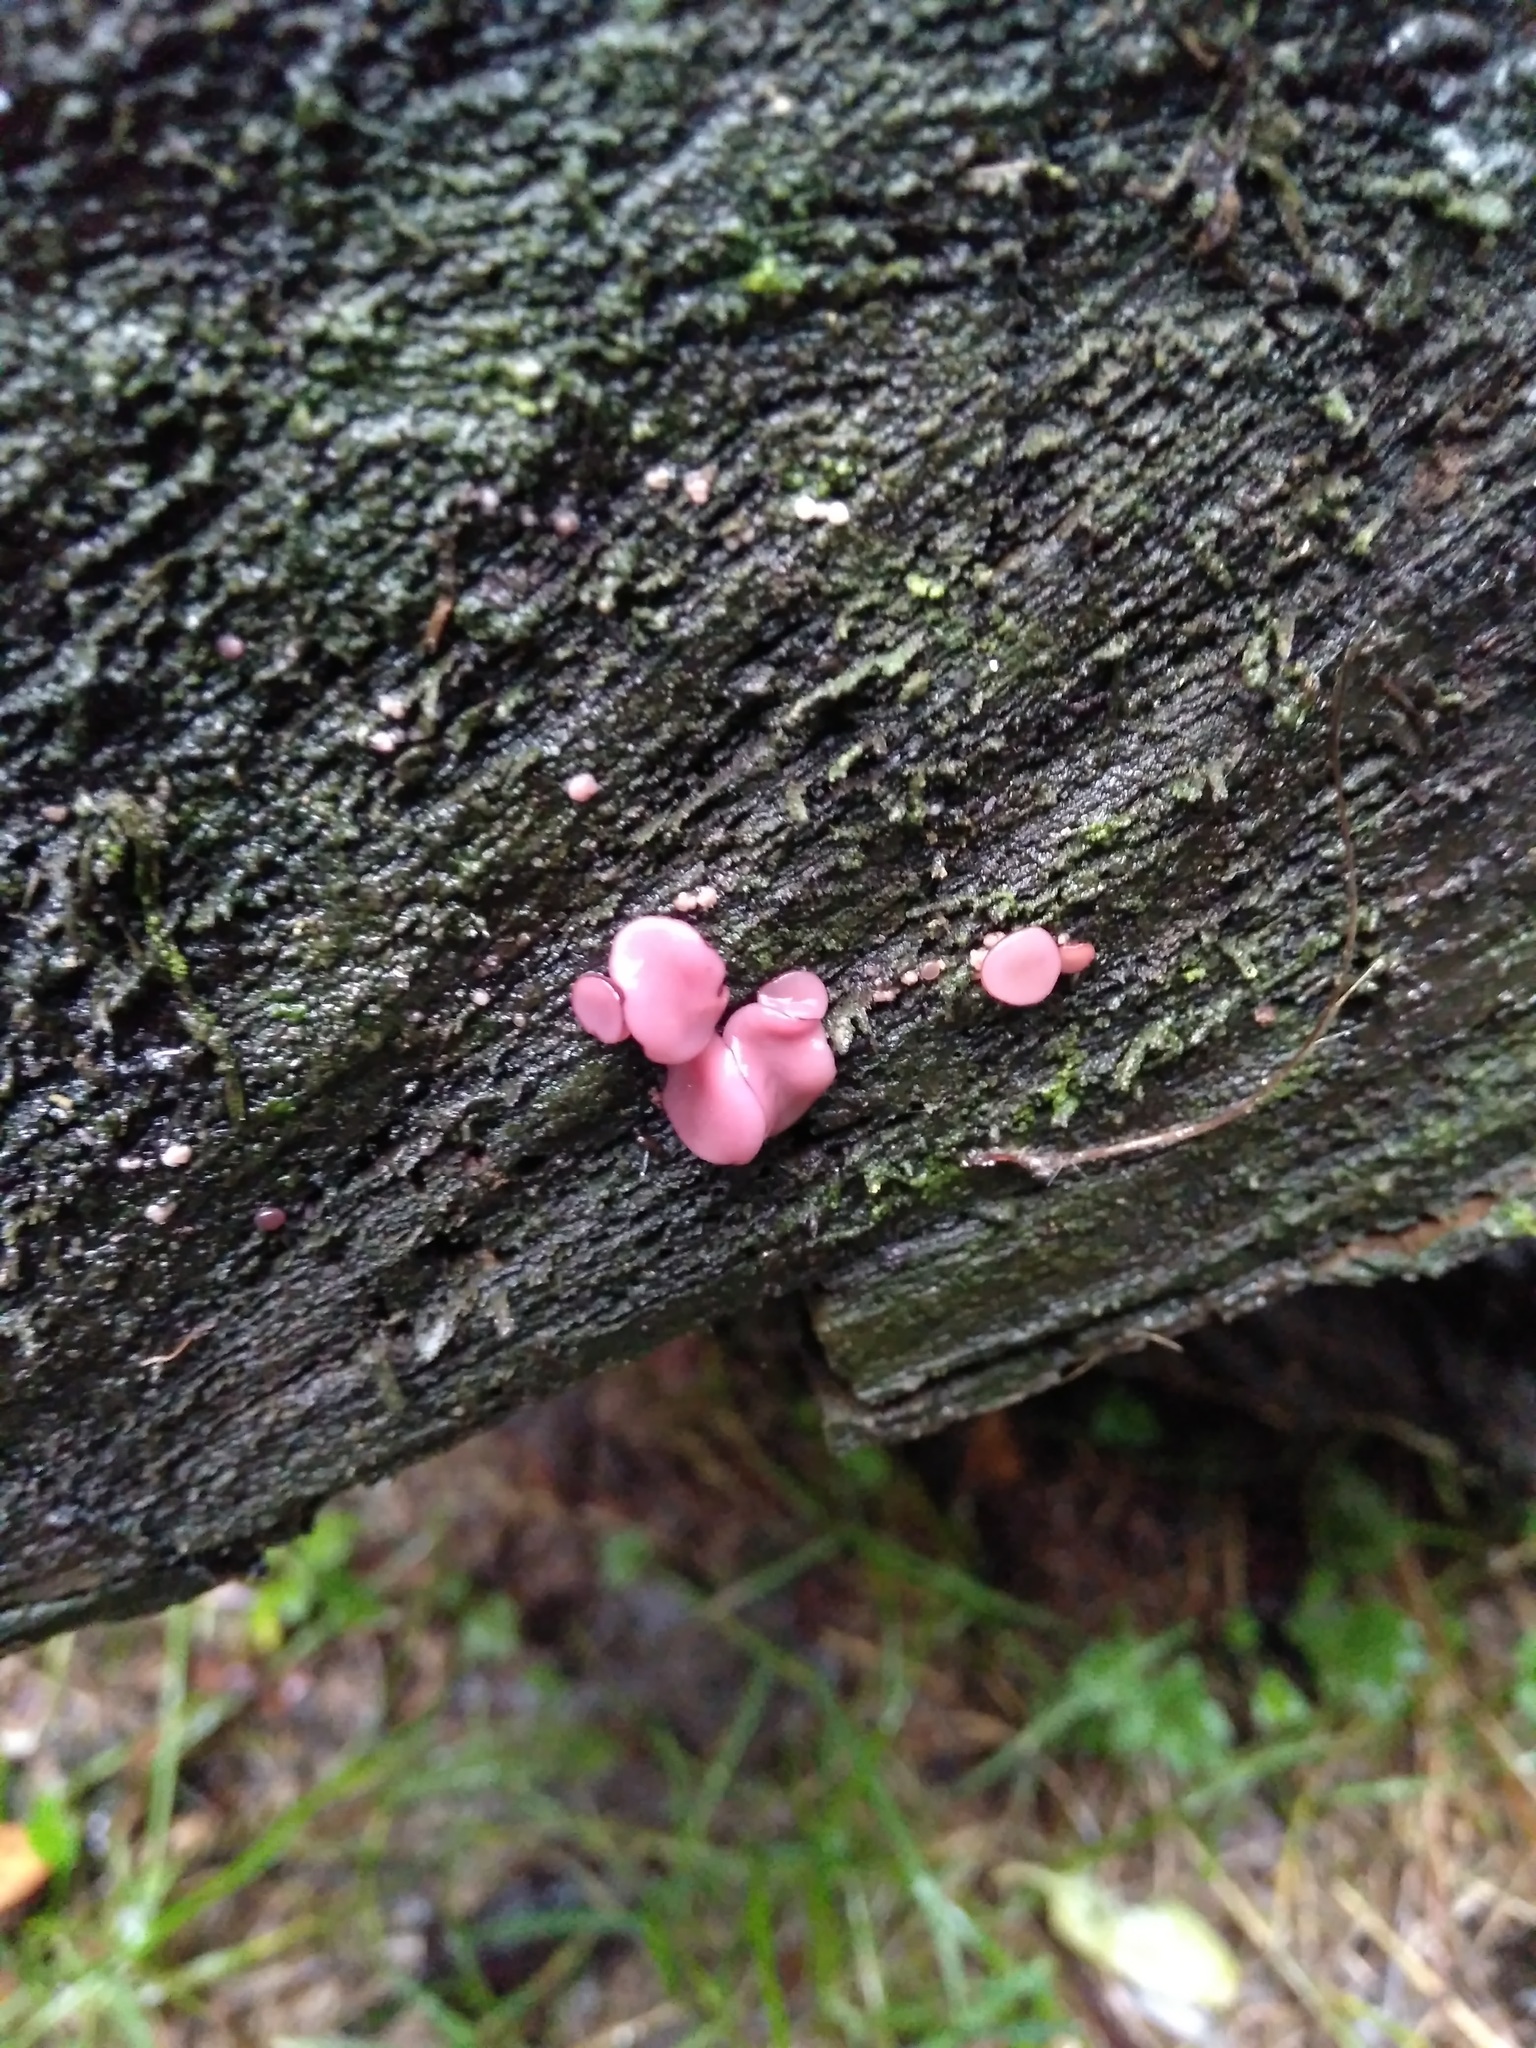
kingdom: Fungi
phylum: Ascomycota
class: Leotiomycetes
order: Helotiales
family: Gelatinodiscaceae
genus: Ascocoryne
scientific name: Ascocoryne sarcoides
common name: Purple jellydisc
